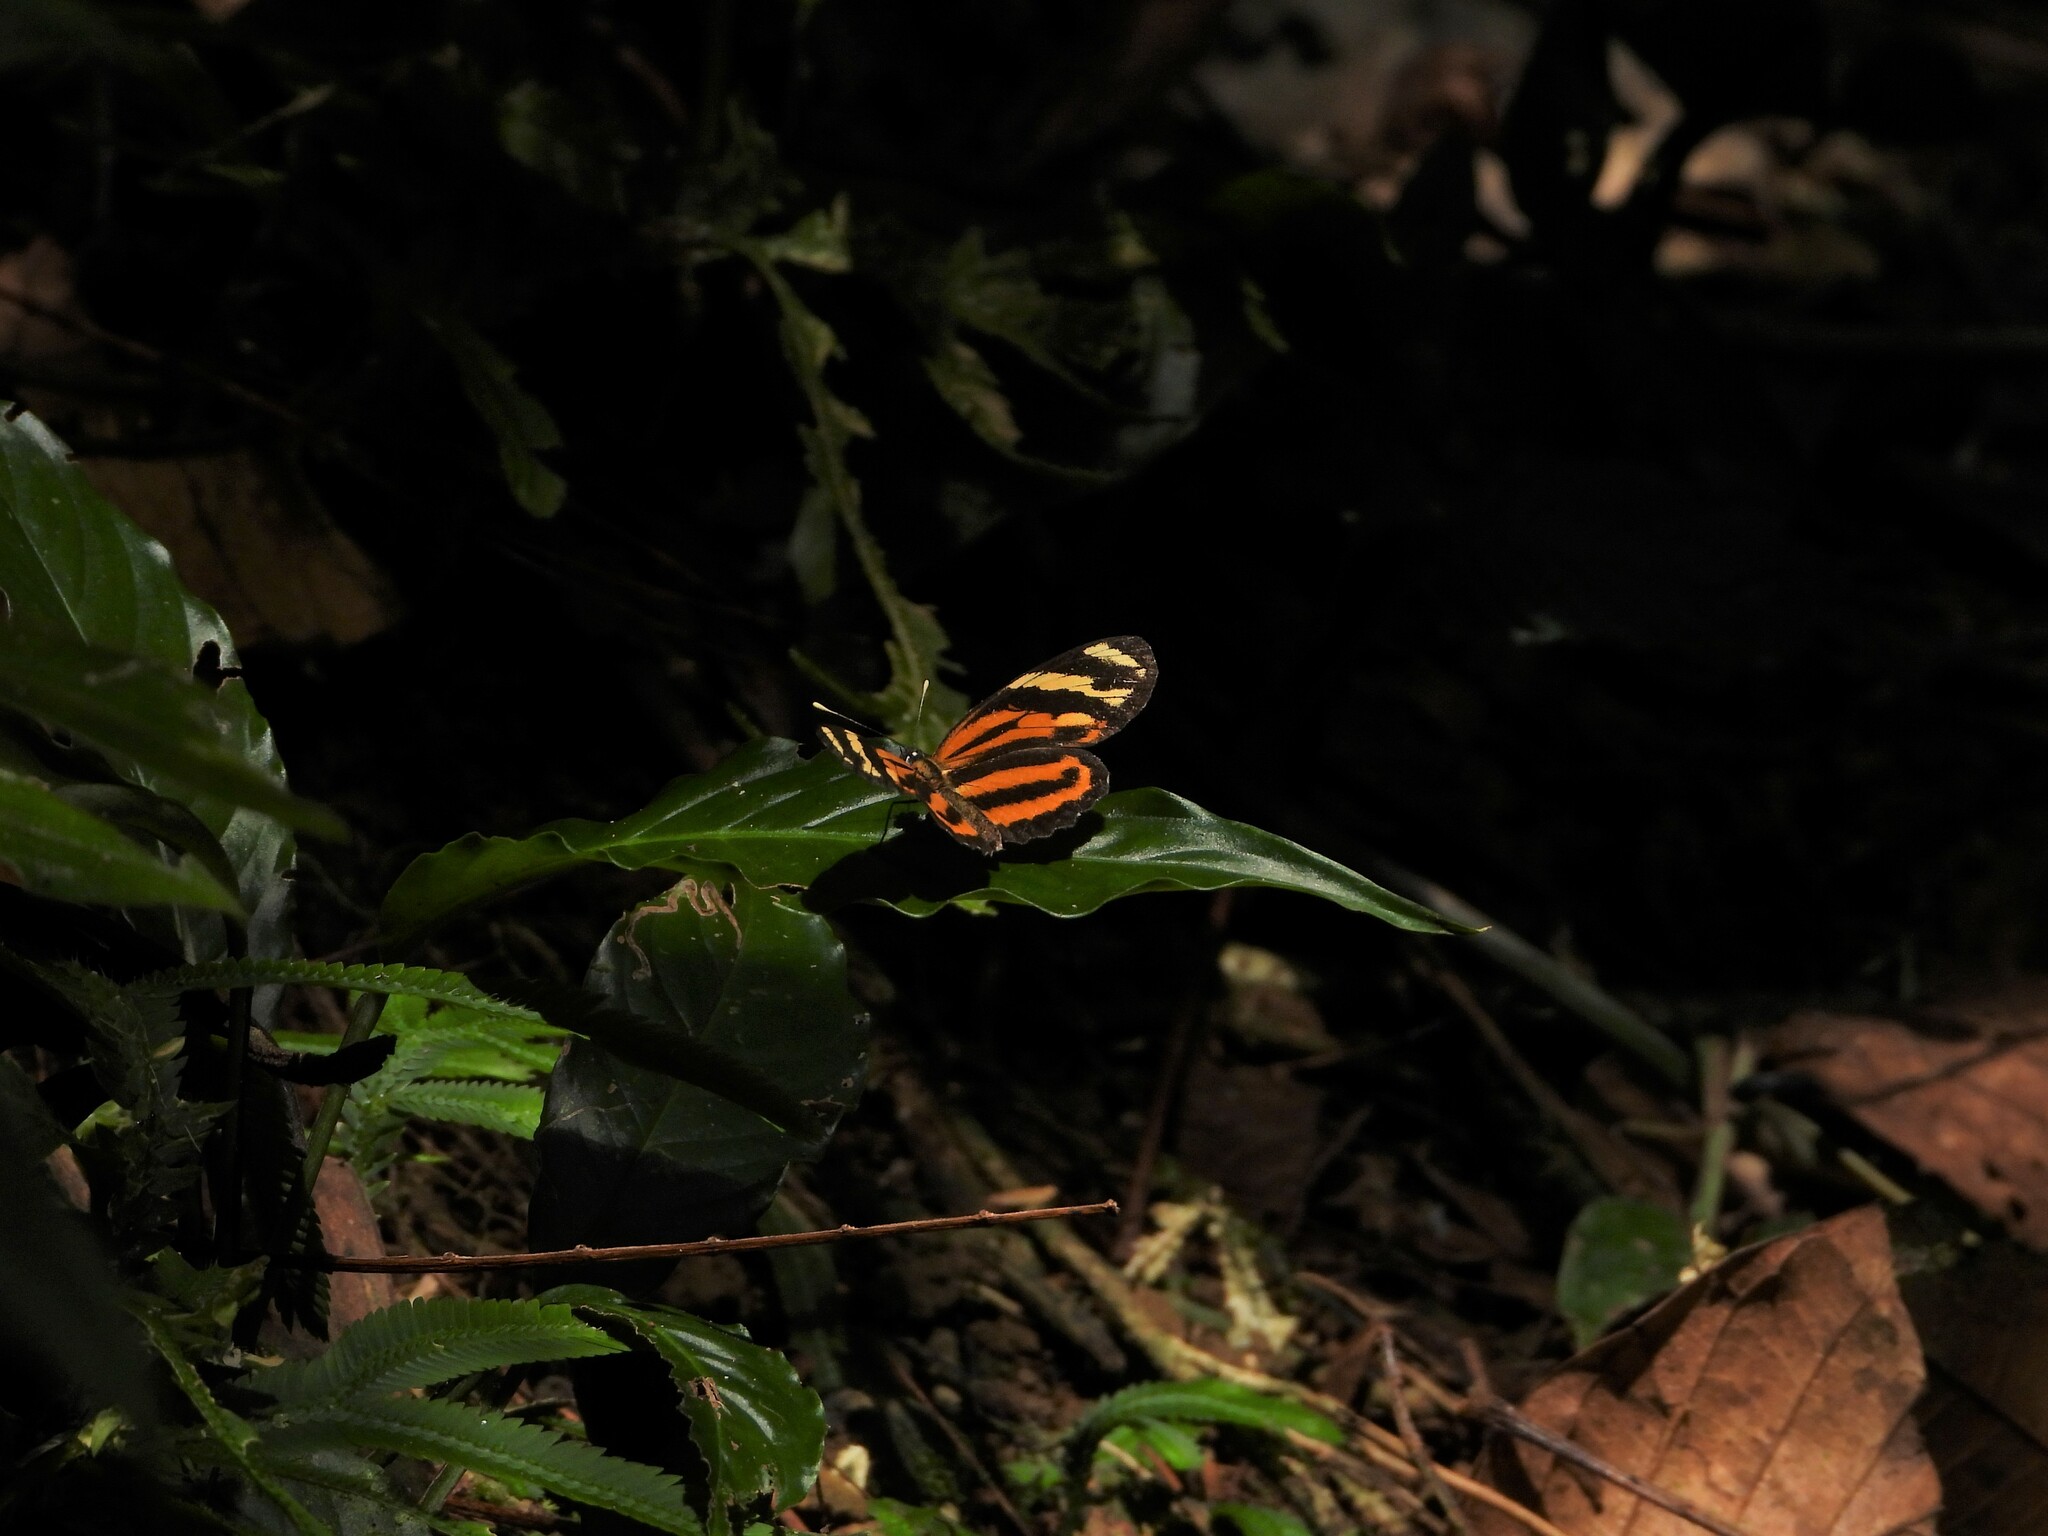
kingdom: Animalia
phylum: Arthropoda
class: Insecta
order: Lepidoptera
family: Nymphalidae
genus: Eresia
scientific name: Eresia eunice
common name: Tiger crescent
